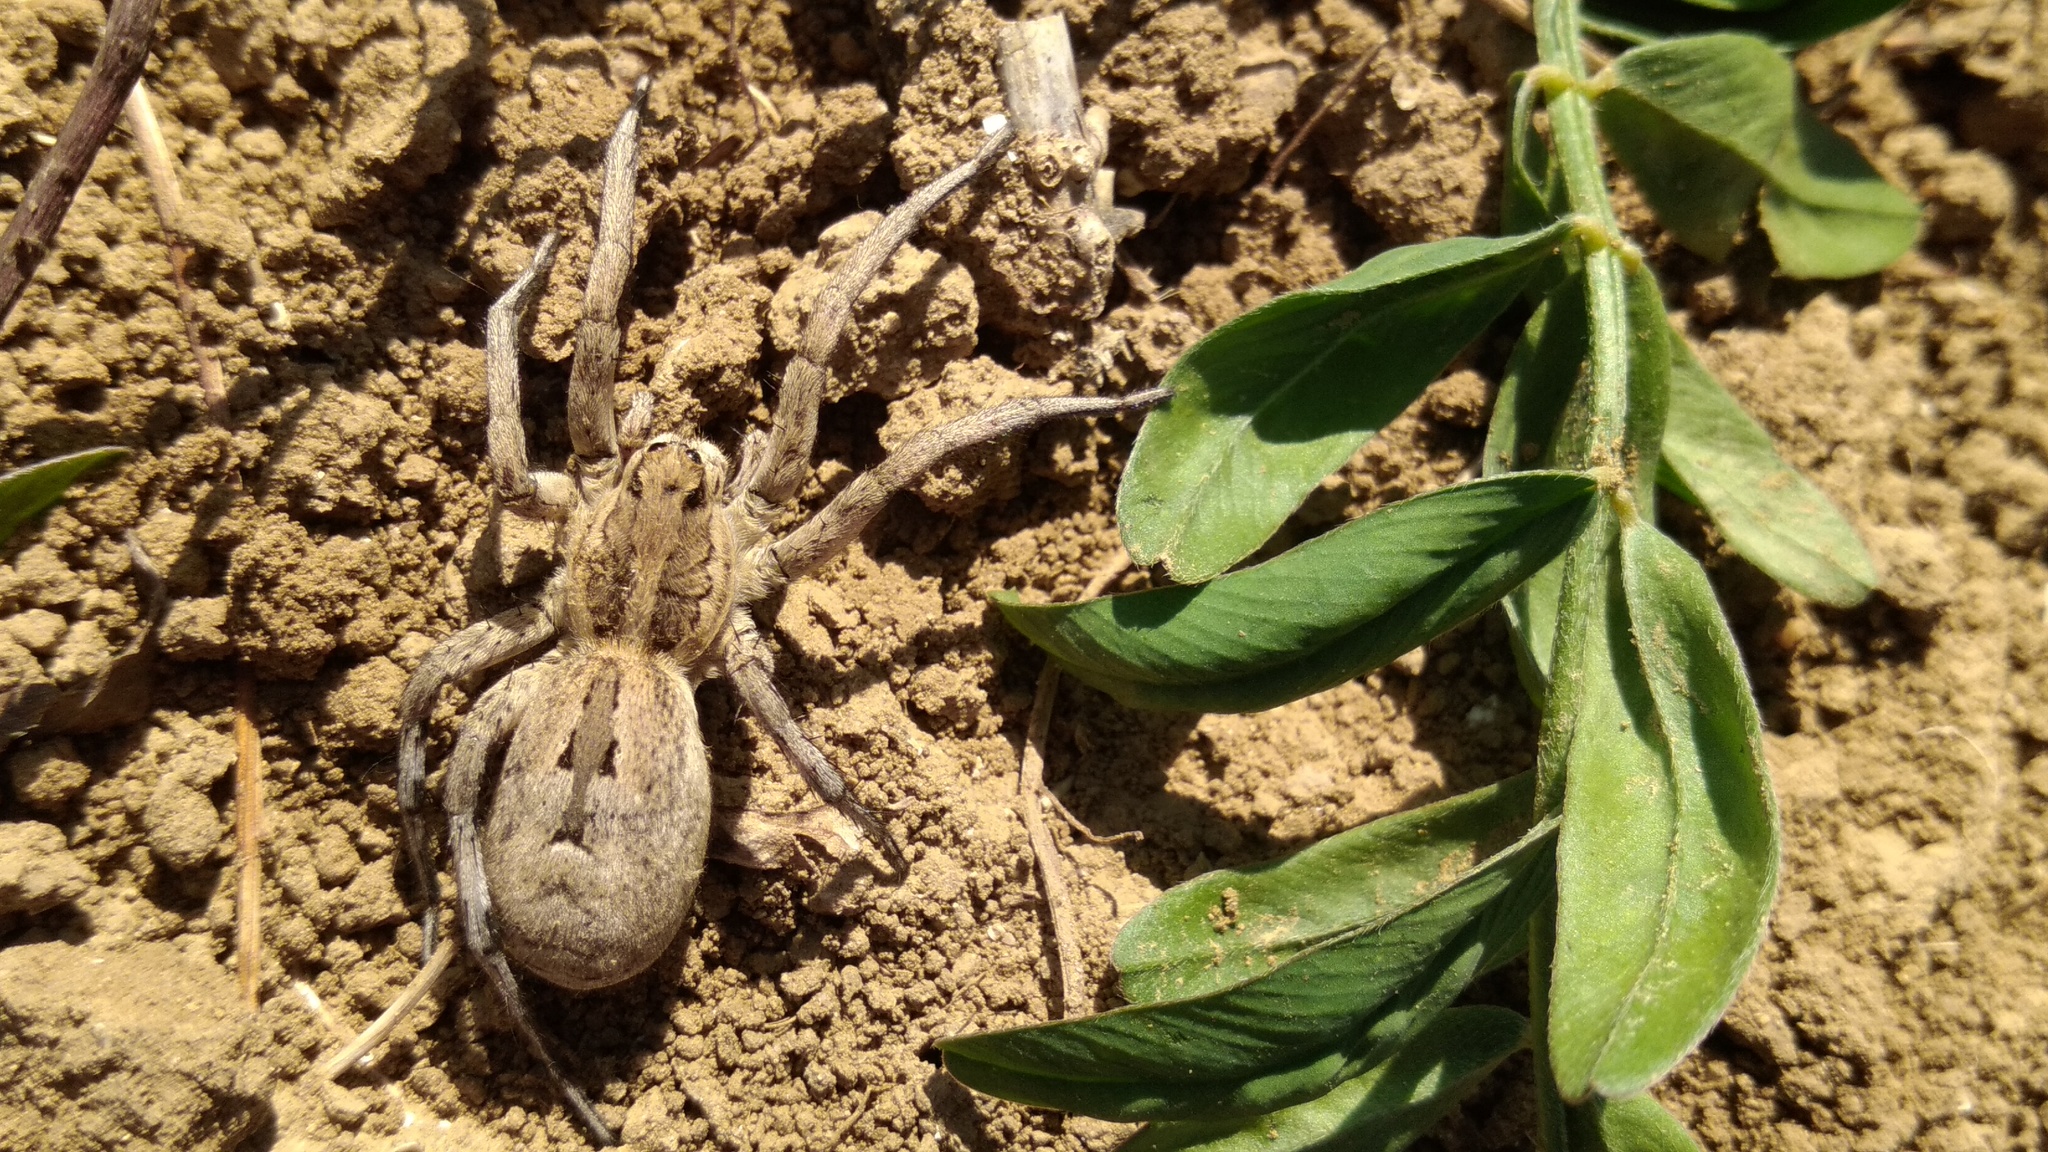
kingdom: Animalia
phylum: Arthropoda
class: Arachnida
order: Araneae
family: Lycosidae
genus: Hogna
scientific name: Hogna radiata
